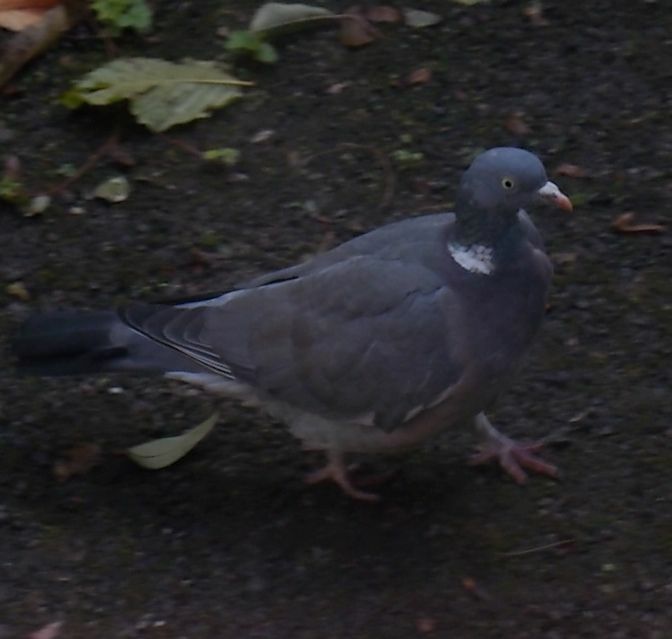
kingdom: Animalia
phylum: Chordata
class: Aves
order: Columbiformes
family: Columbidae
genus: Columba
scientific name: Columba palumbus
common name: Common wood pigeon
